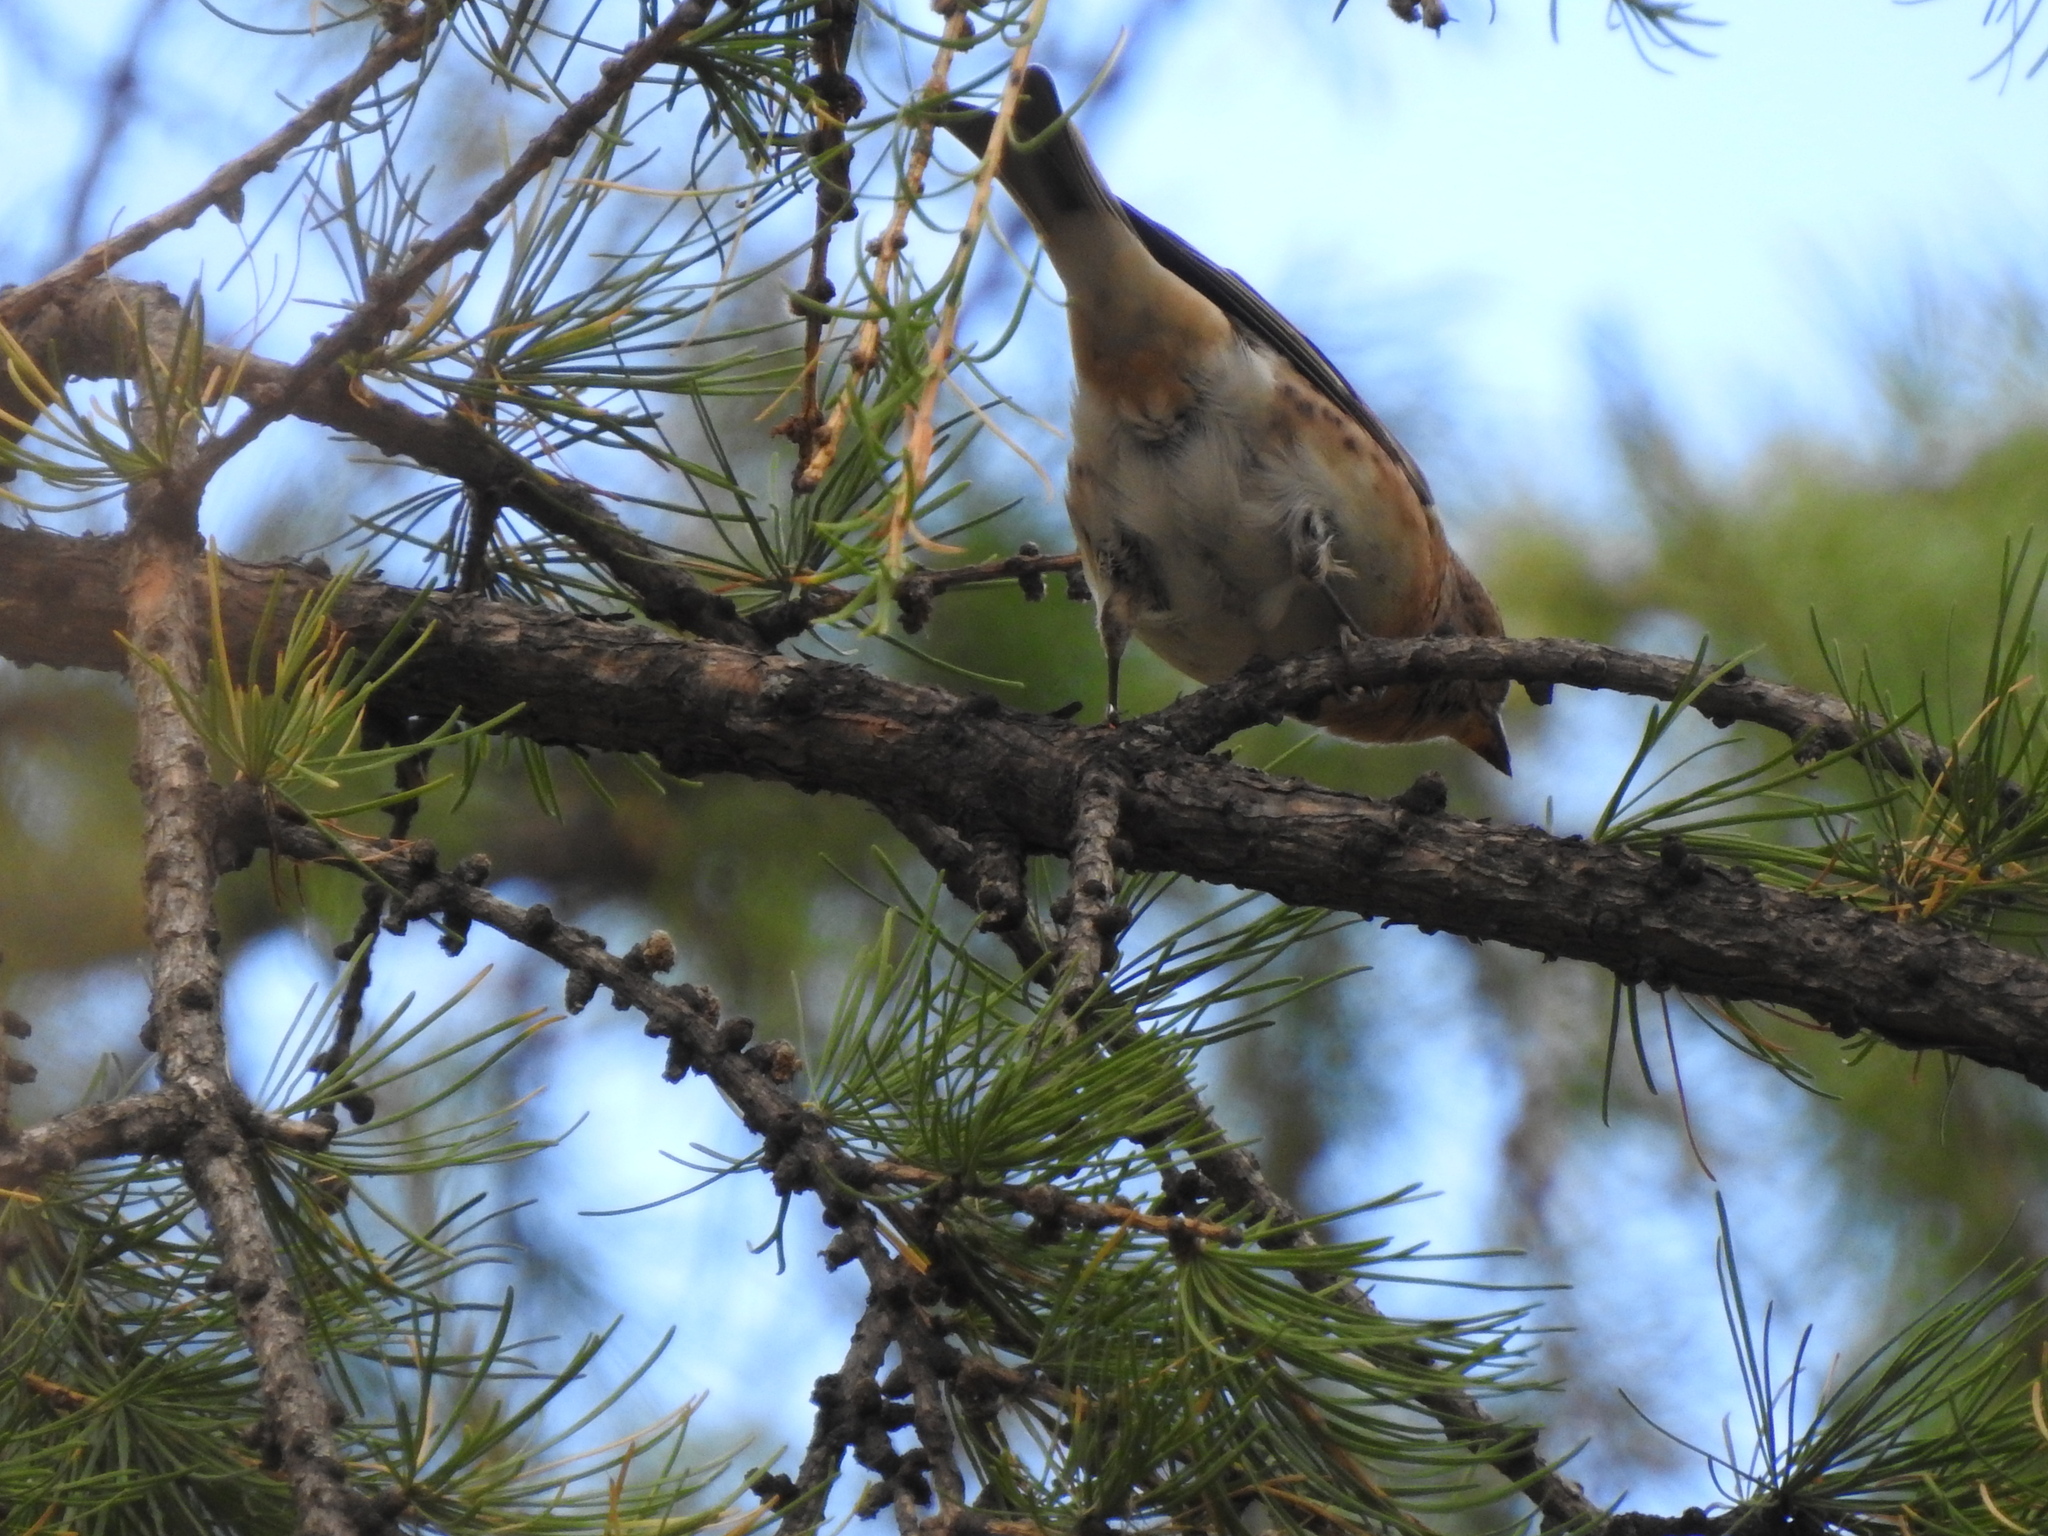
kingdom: Animalia
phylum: Chordata
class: Aves
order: Passeriformes
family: Fringillidae
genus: Fringilla
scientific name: Fringilla montifringilla
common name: Brambling
